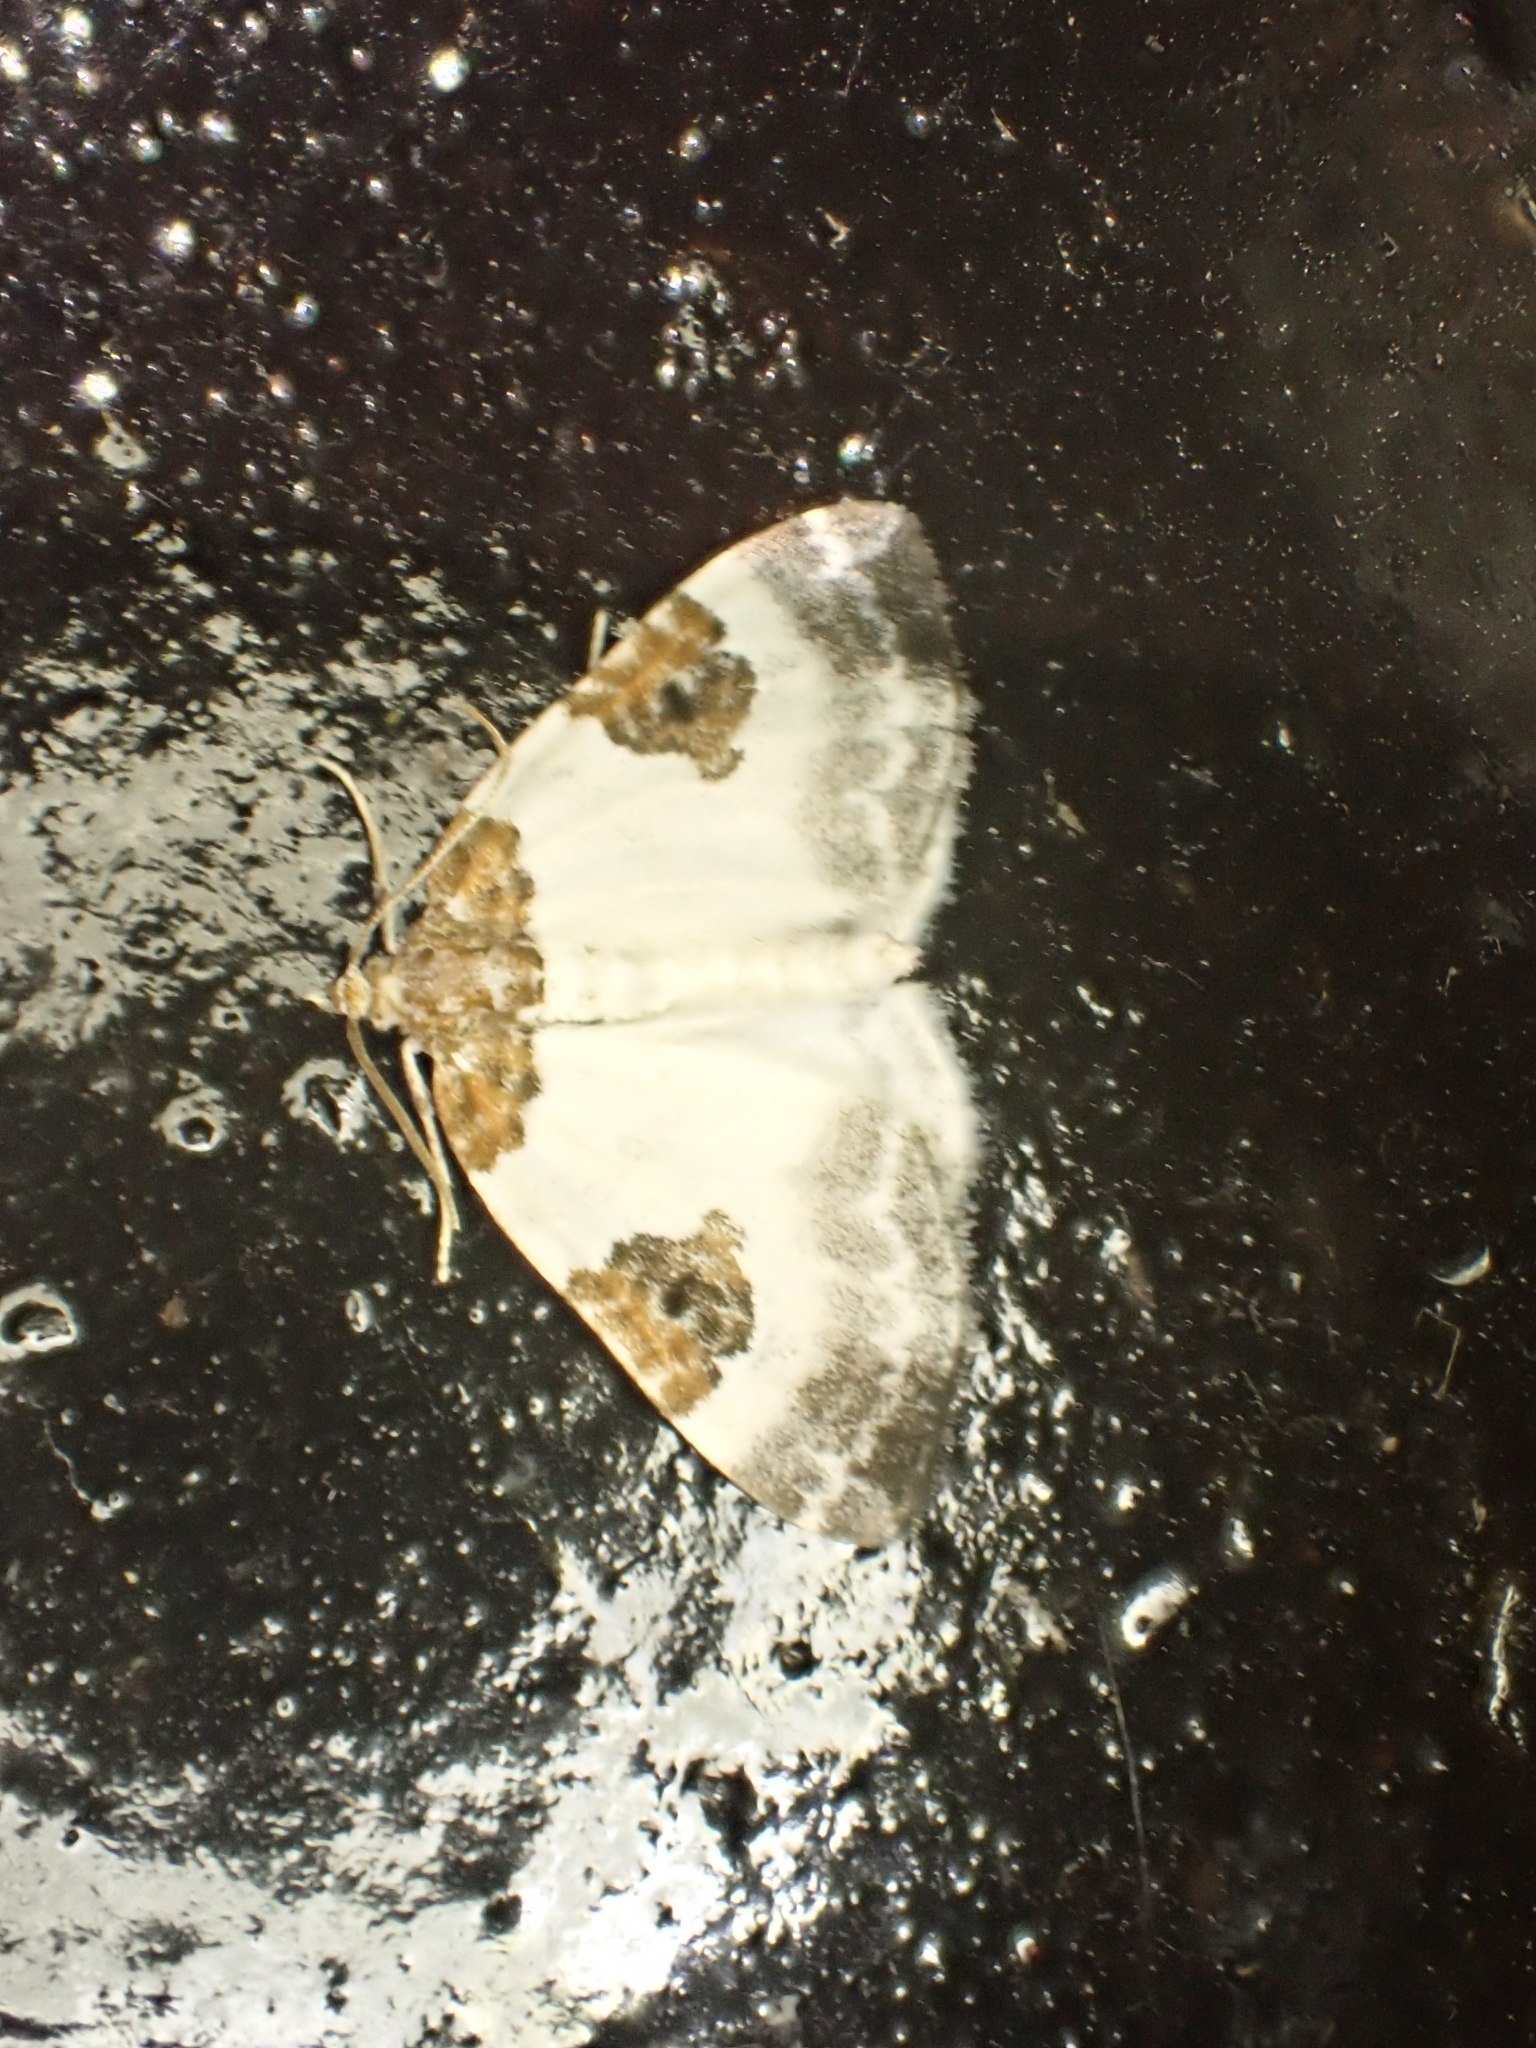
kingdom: Animalia
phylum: Arthropoda
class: Insecta
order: Lepidoptera
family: Geometridae
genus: Plemyria
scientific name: Plemyria rubiginata
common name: Blue-bordered carpet
